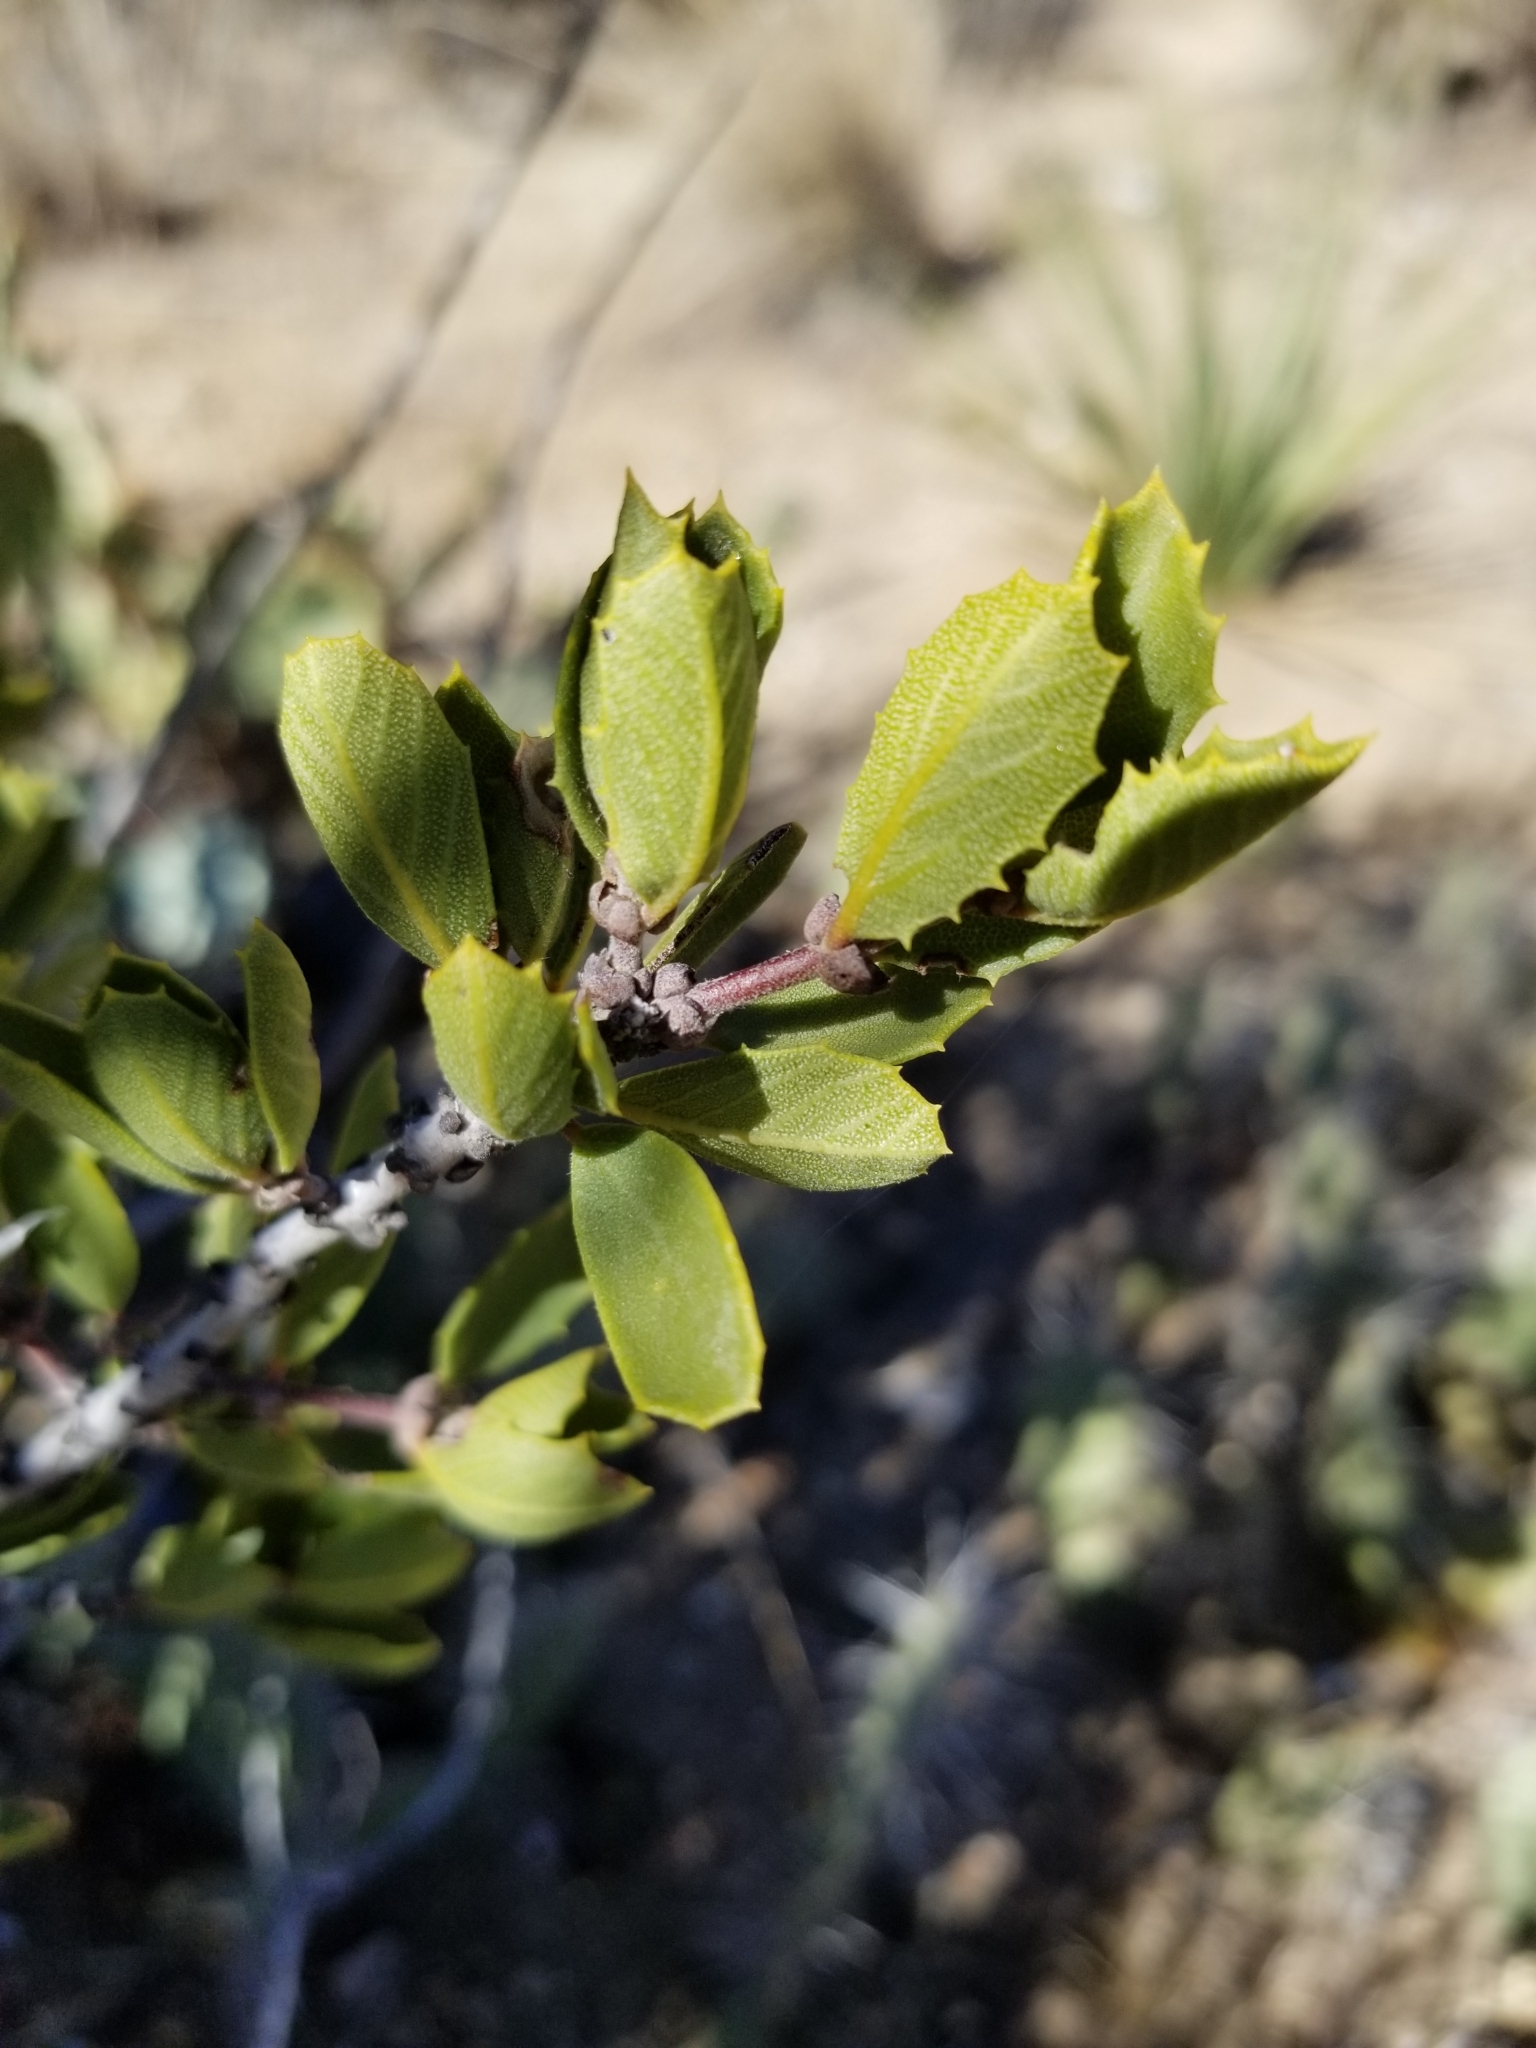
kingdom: Plantae
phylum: Tracheophyta
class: Magnoliopsida
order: Rosales
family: Rhamnaceae
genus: Ceanothus
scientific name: Ceanothus perplexans
